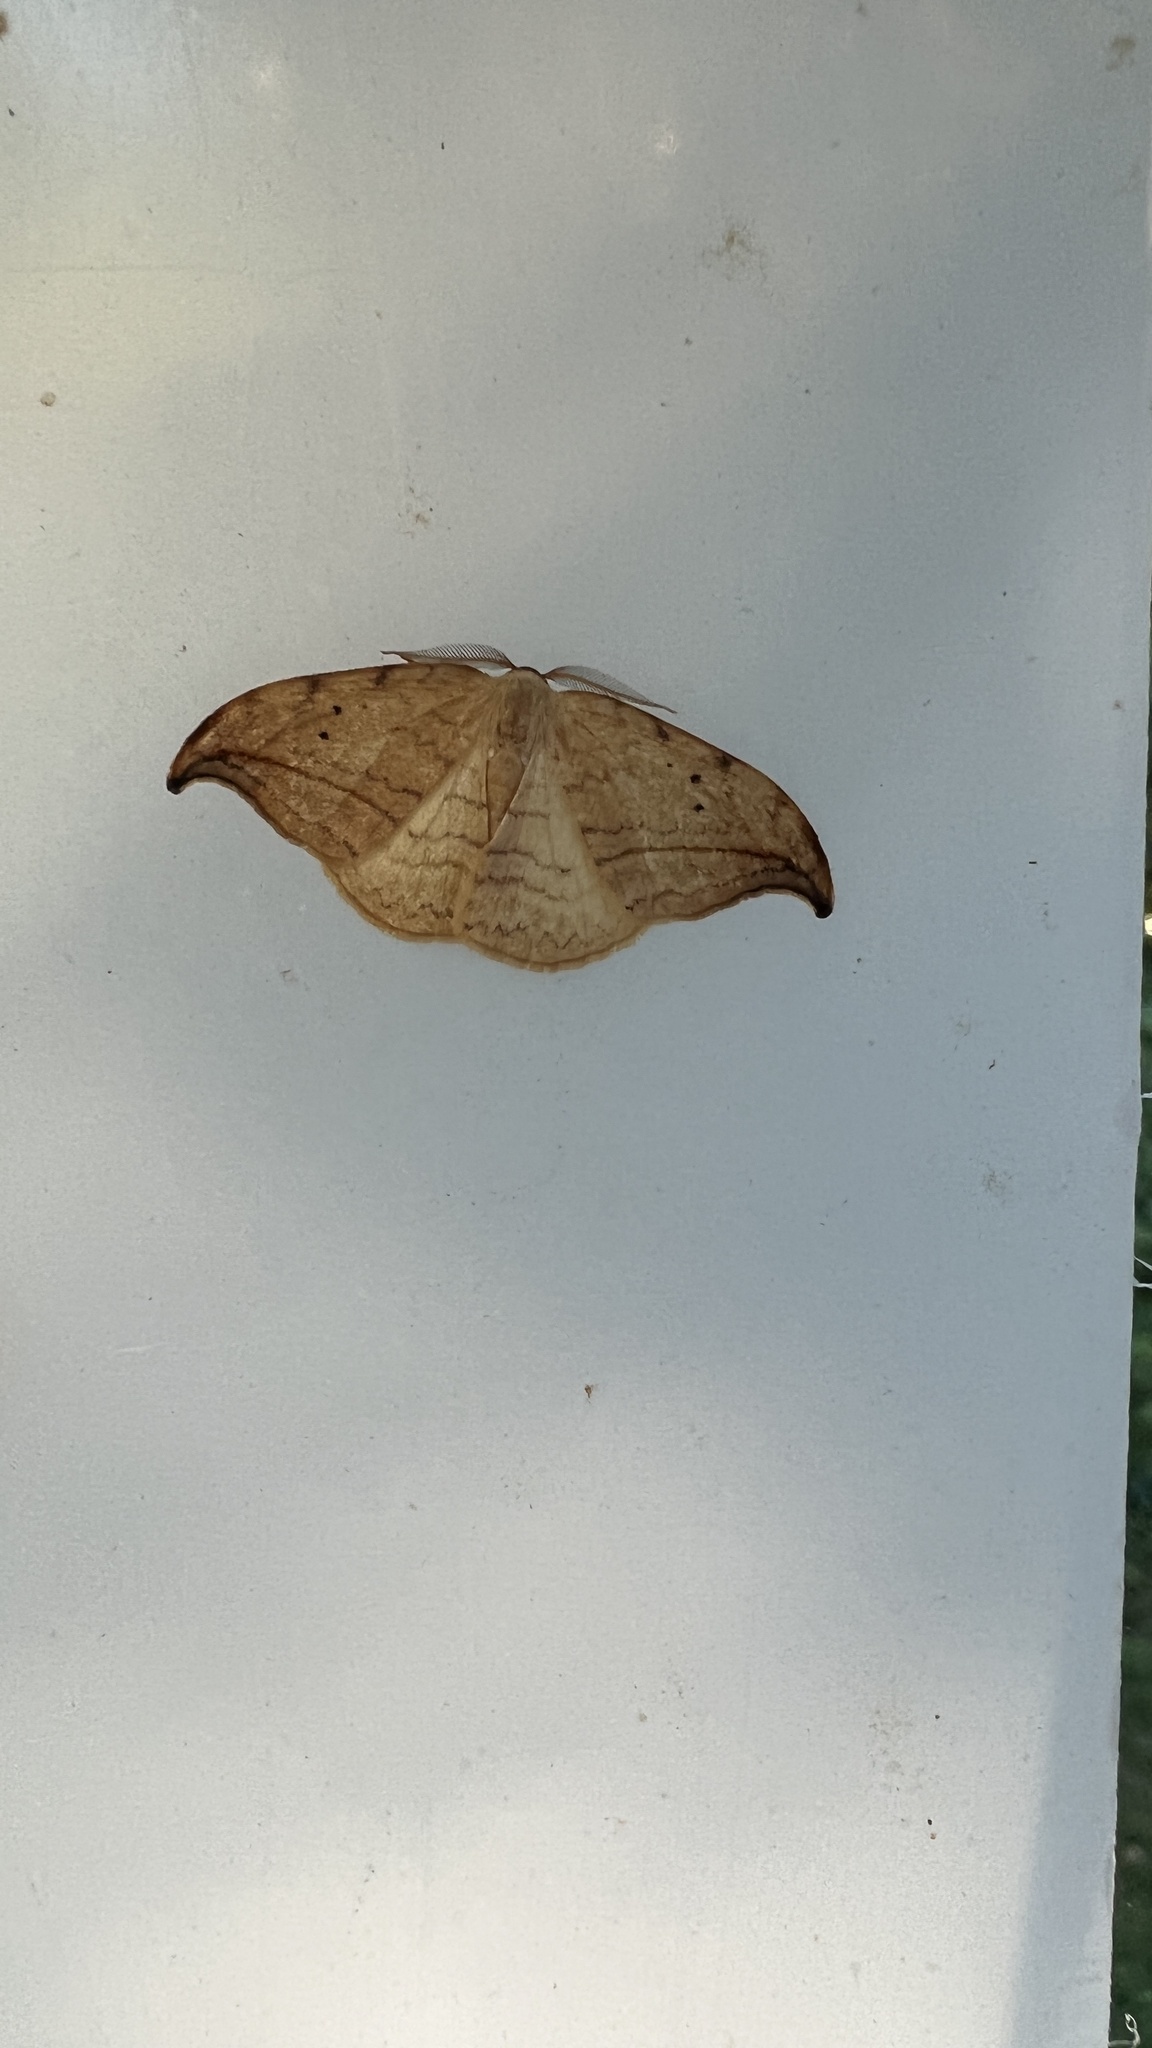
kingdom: Animalia
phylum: Arthropoda
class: Insecta
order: Lepidoptera
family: Drepanidae
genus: Drepana
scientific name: Drepana arcuata
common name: Arched hooktip moth
